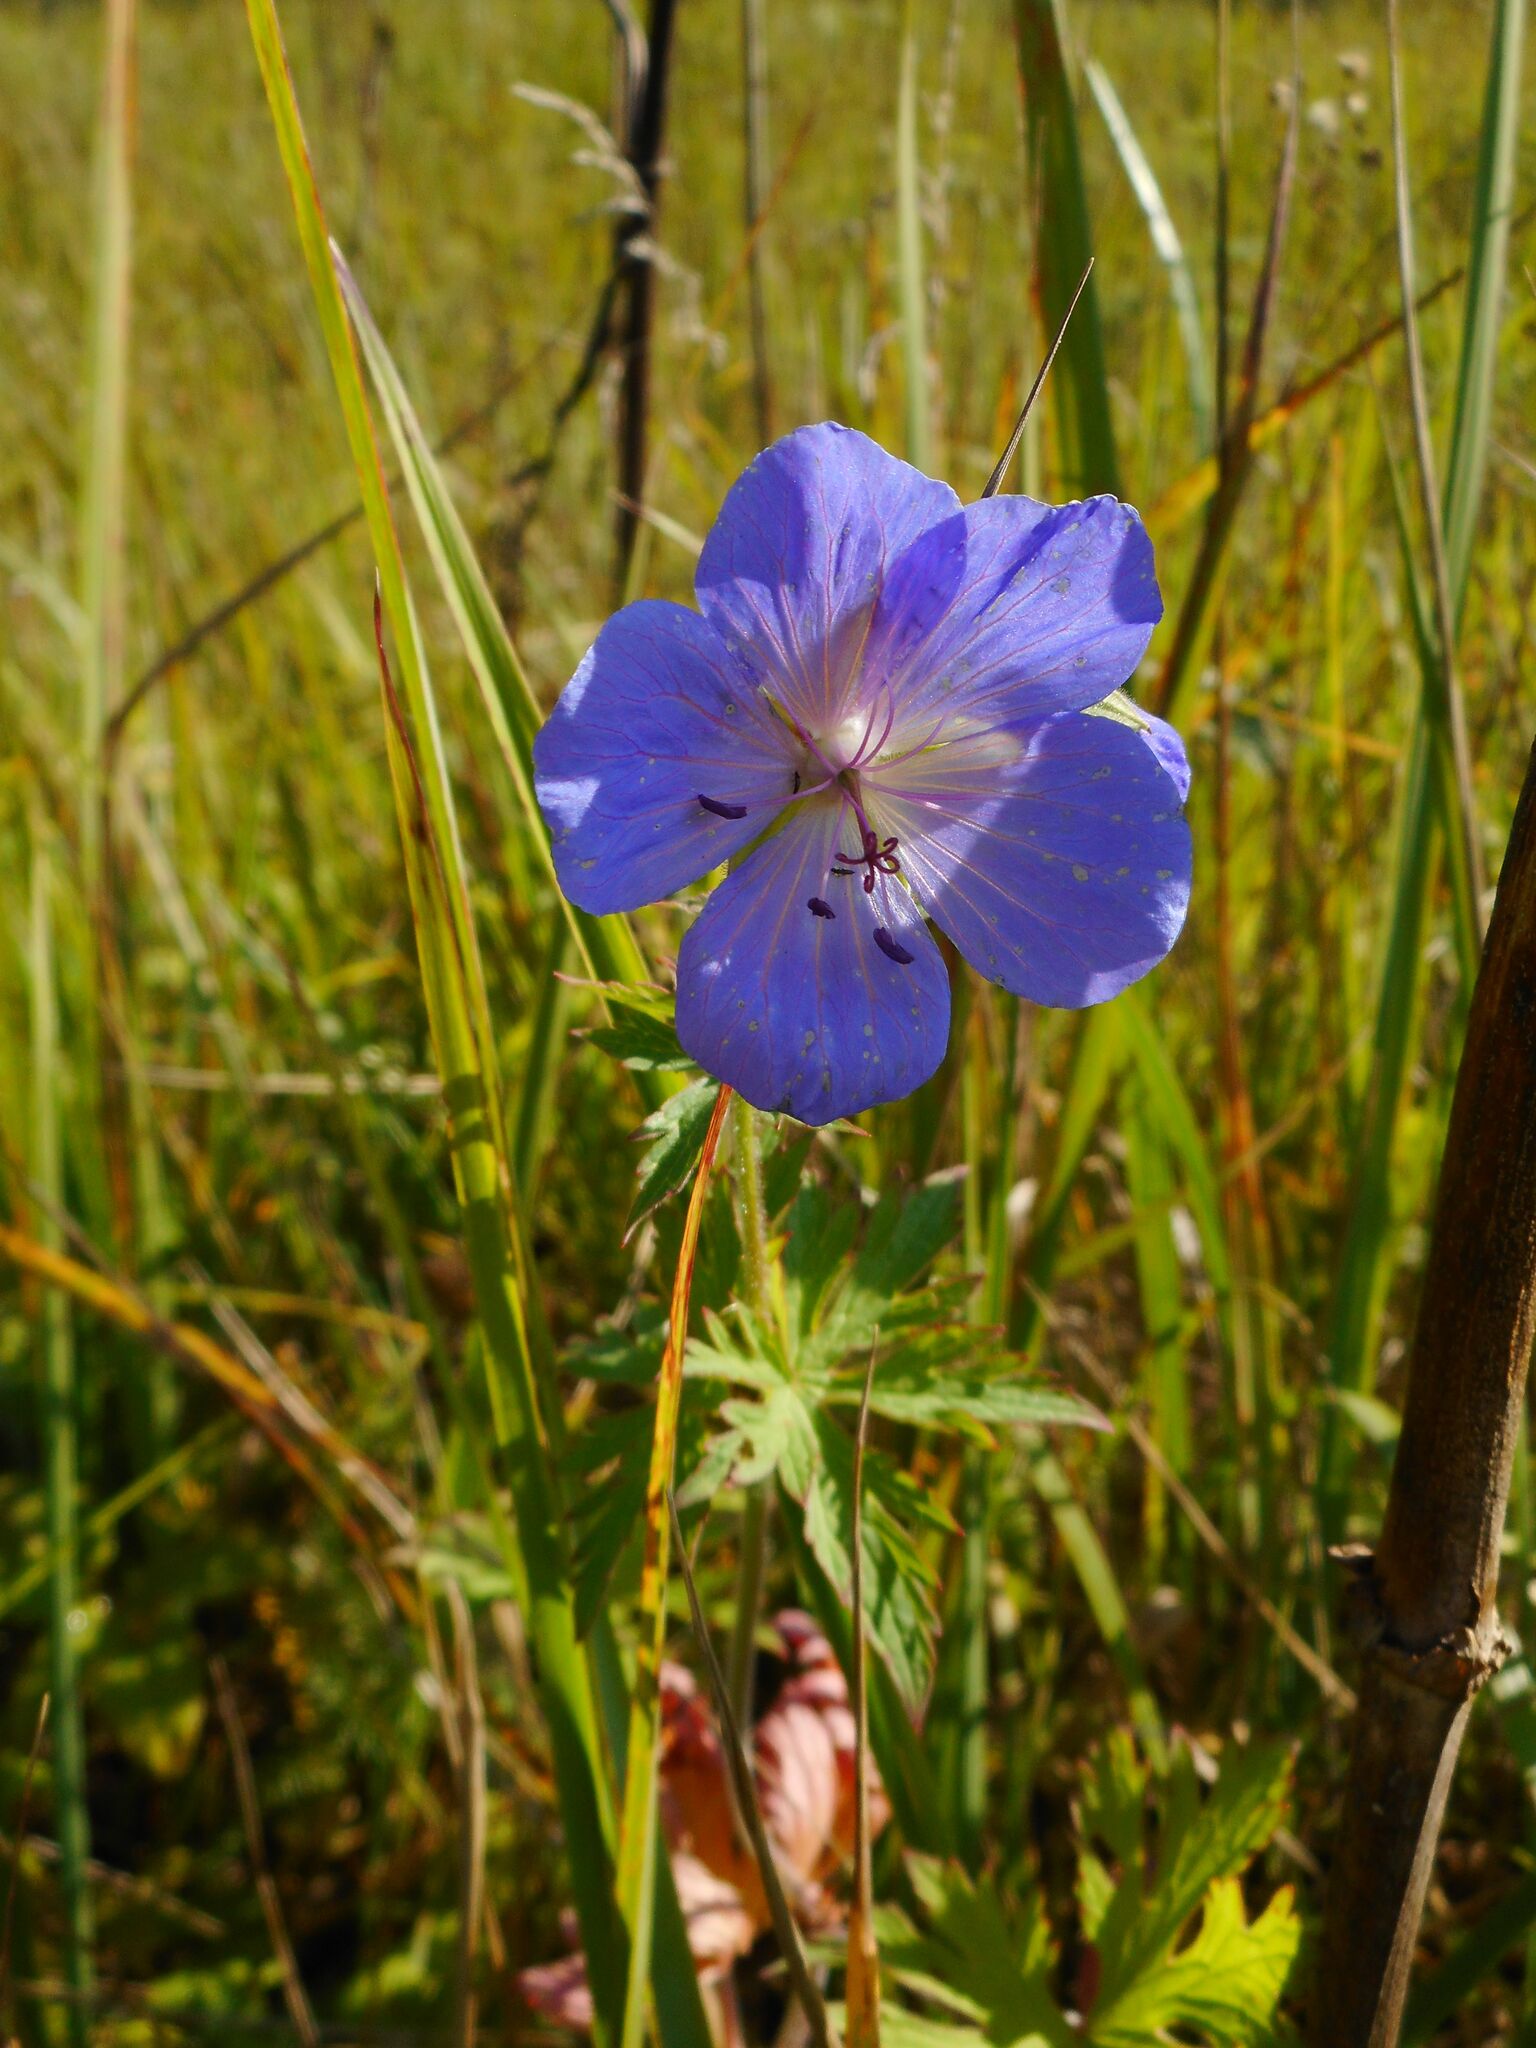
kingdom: Plantae
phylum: Tracheophyta
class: Magnoliopsida
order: Geraniales
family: Geraniaceae
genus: Geranium
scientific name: Geranium pratense
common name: Meadow crane's-bill
